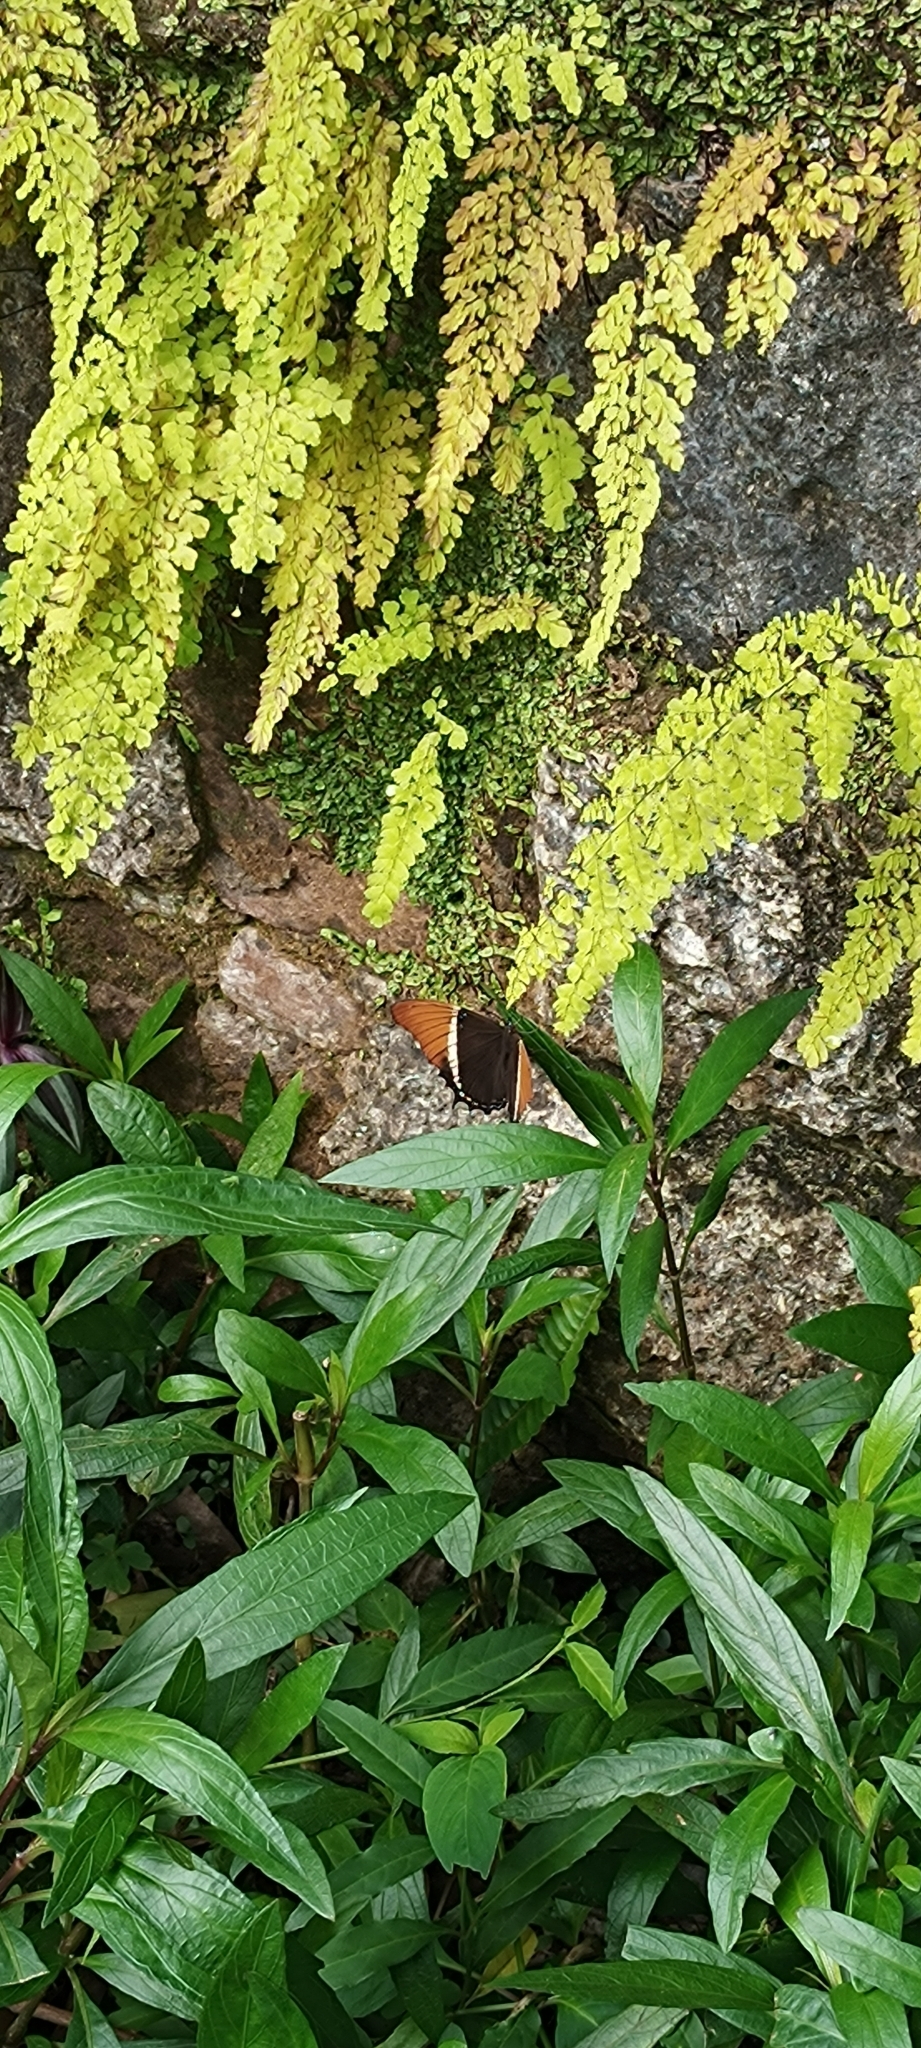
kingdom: Animalia
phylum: Arthropoda
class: Insecta
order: Lepidoptera
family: Nymphalidae
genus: Siproeta
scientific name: Siproeta epaphus
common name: Rusty-tipped page
